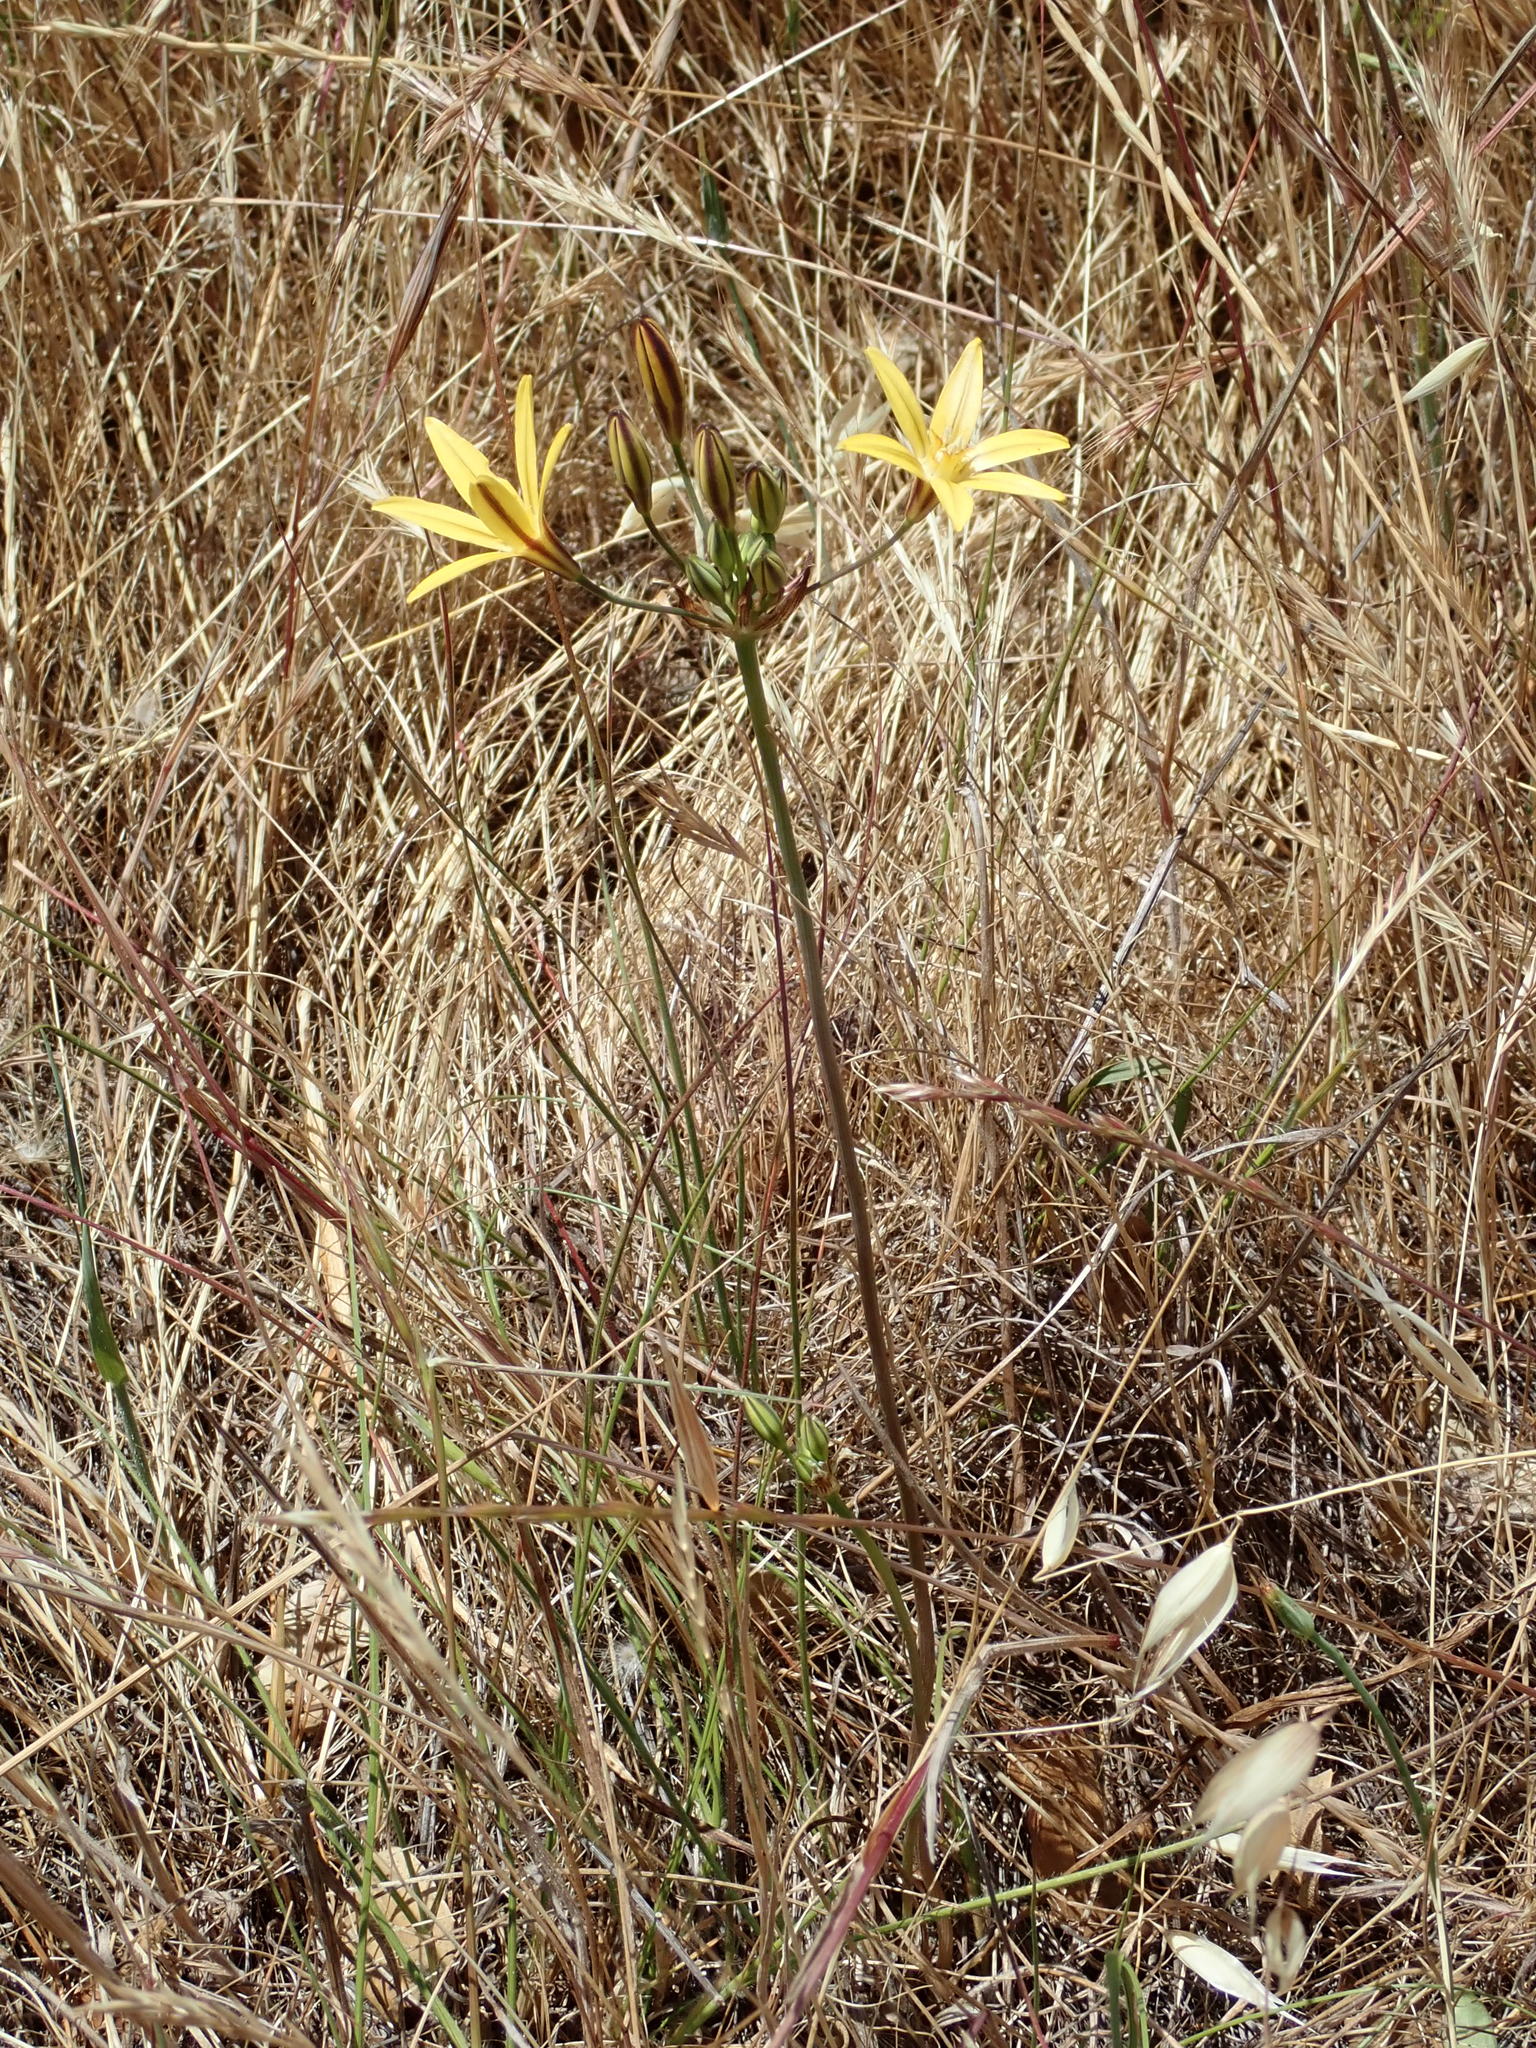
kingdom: Plantae
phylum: Tracheophyta
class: Liliopsida
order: Asparagales
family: Asparagaceae
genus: Triteleia
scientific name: Triteleia ixioides
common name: Yellow-brodiaea
